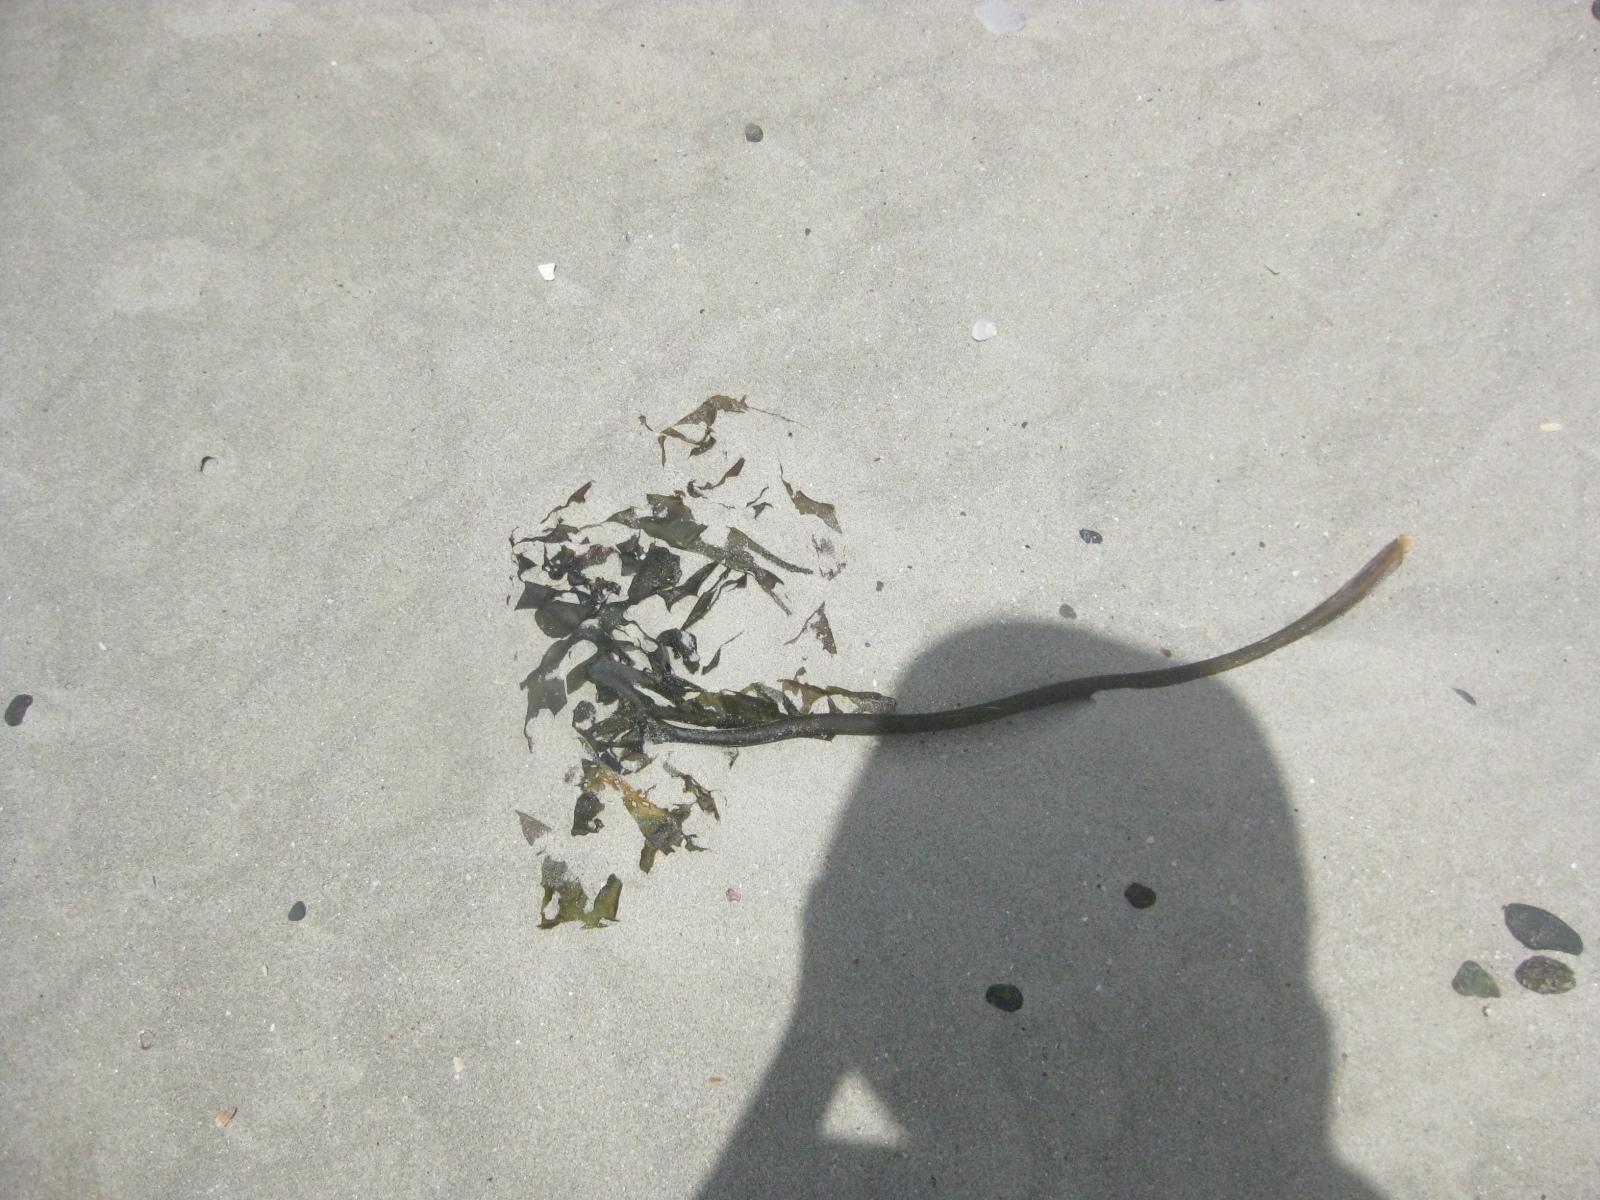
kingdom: Chromista
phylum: Ochrophyta
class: Phaeophyceae
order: Laminariales
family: Lessoniaceae
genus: Ecklonia
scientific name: Ecklonia radiata
